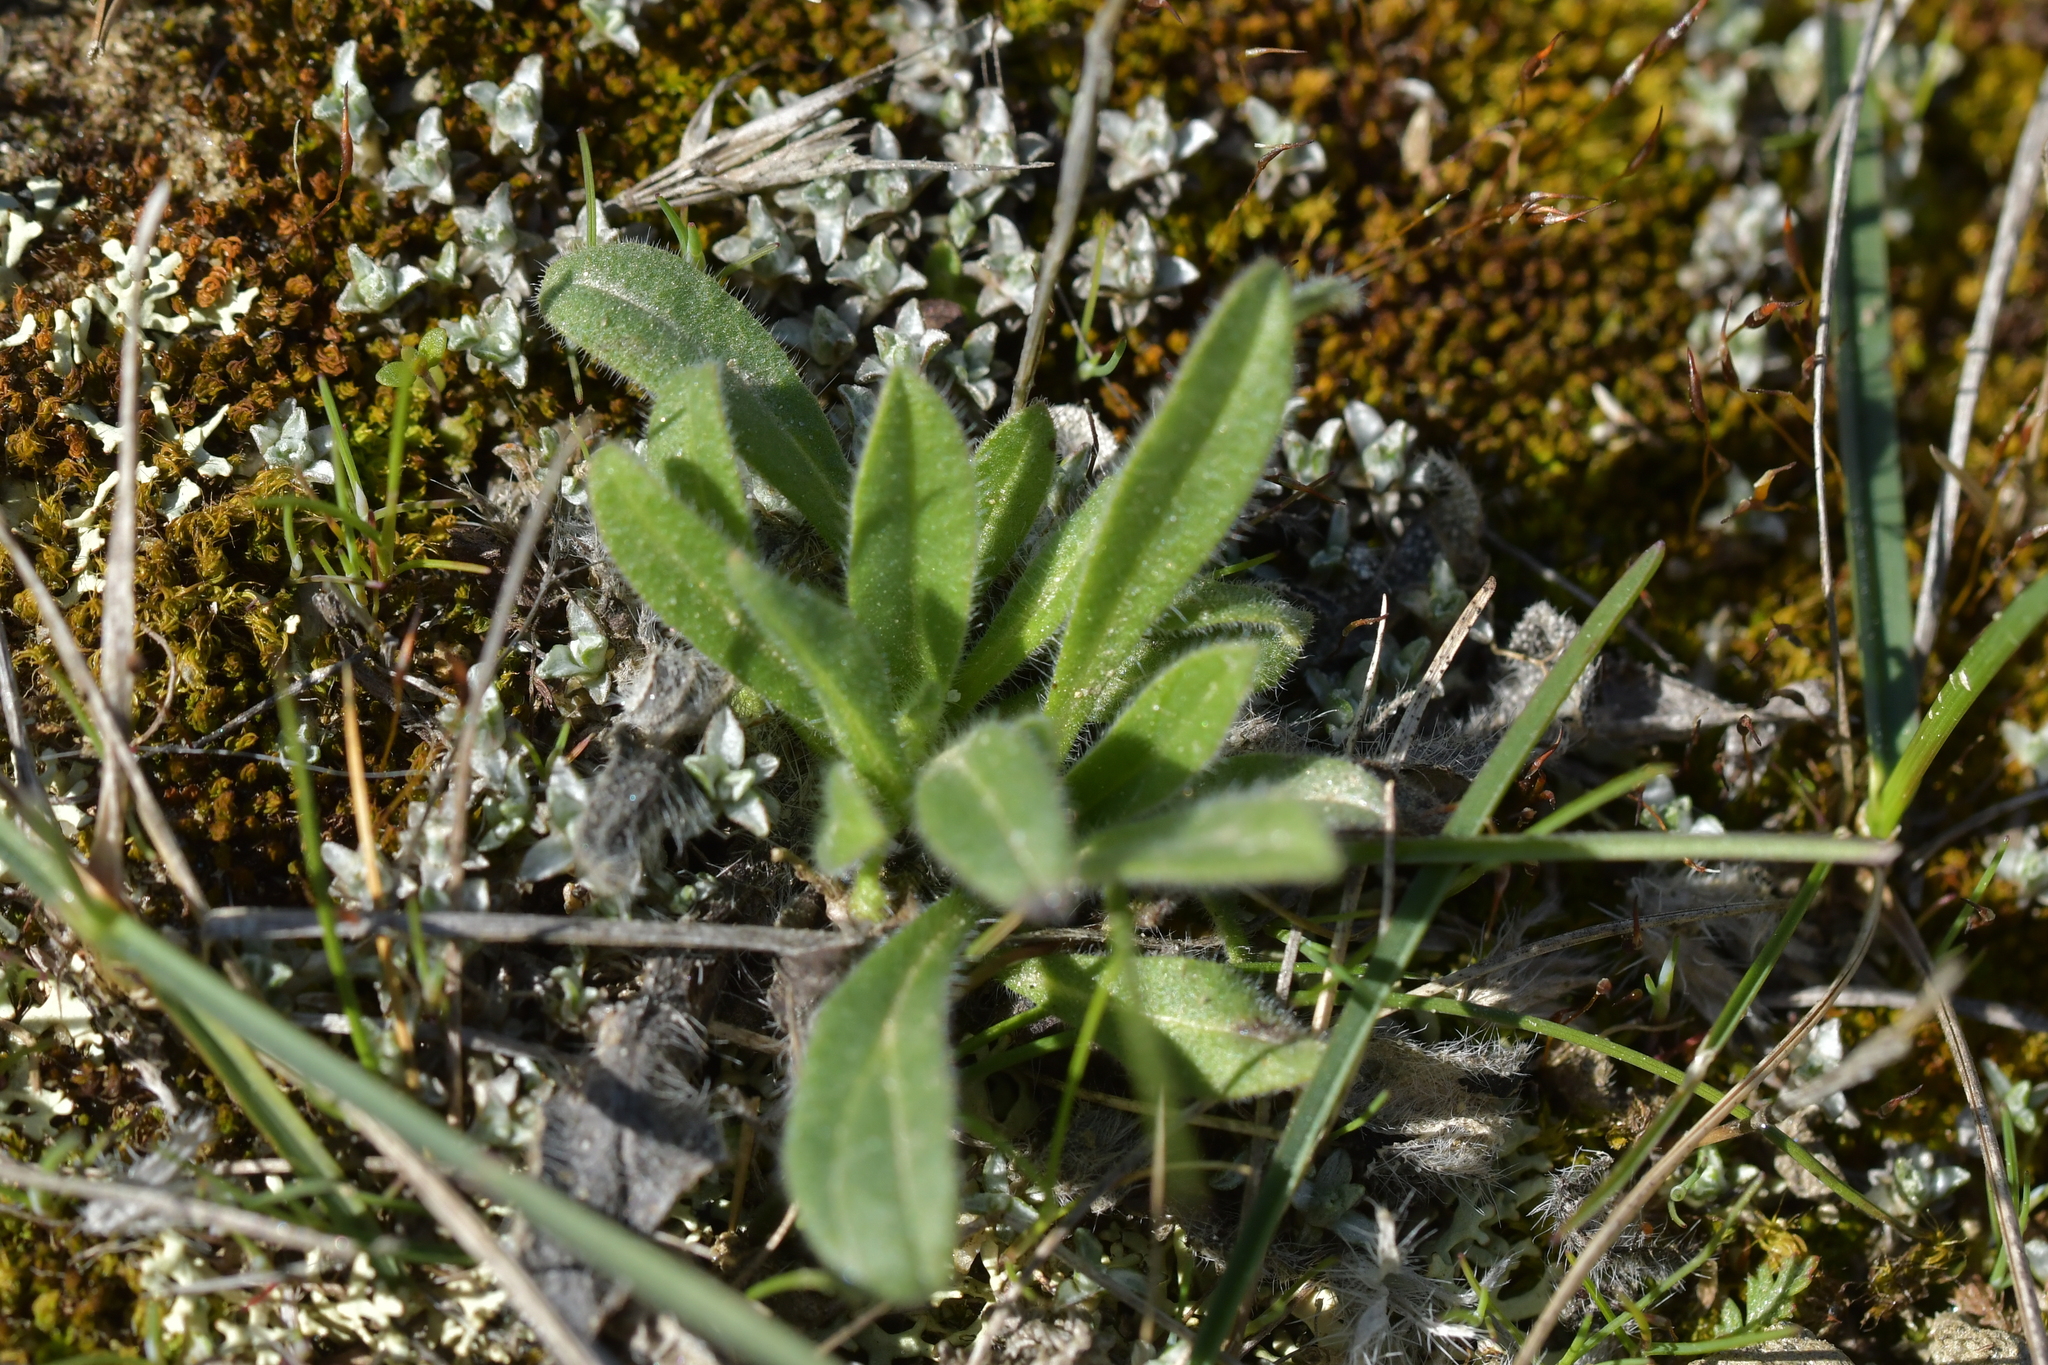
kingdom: Plantae
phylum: Tracheophyta
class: Magnoliopsida
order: Boraginales
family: Boraginaceae
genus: Echium
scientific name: Echium vulgare
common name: Common viper's bugloss
